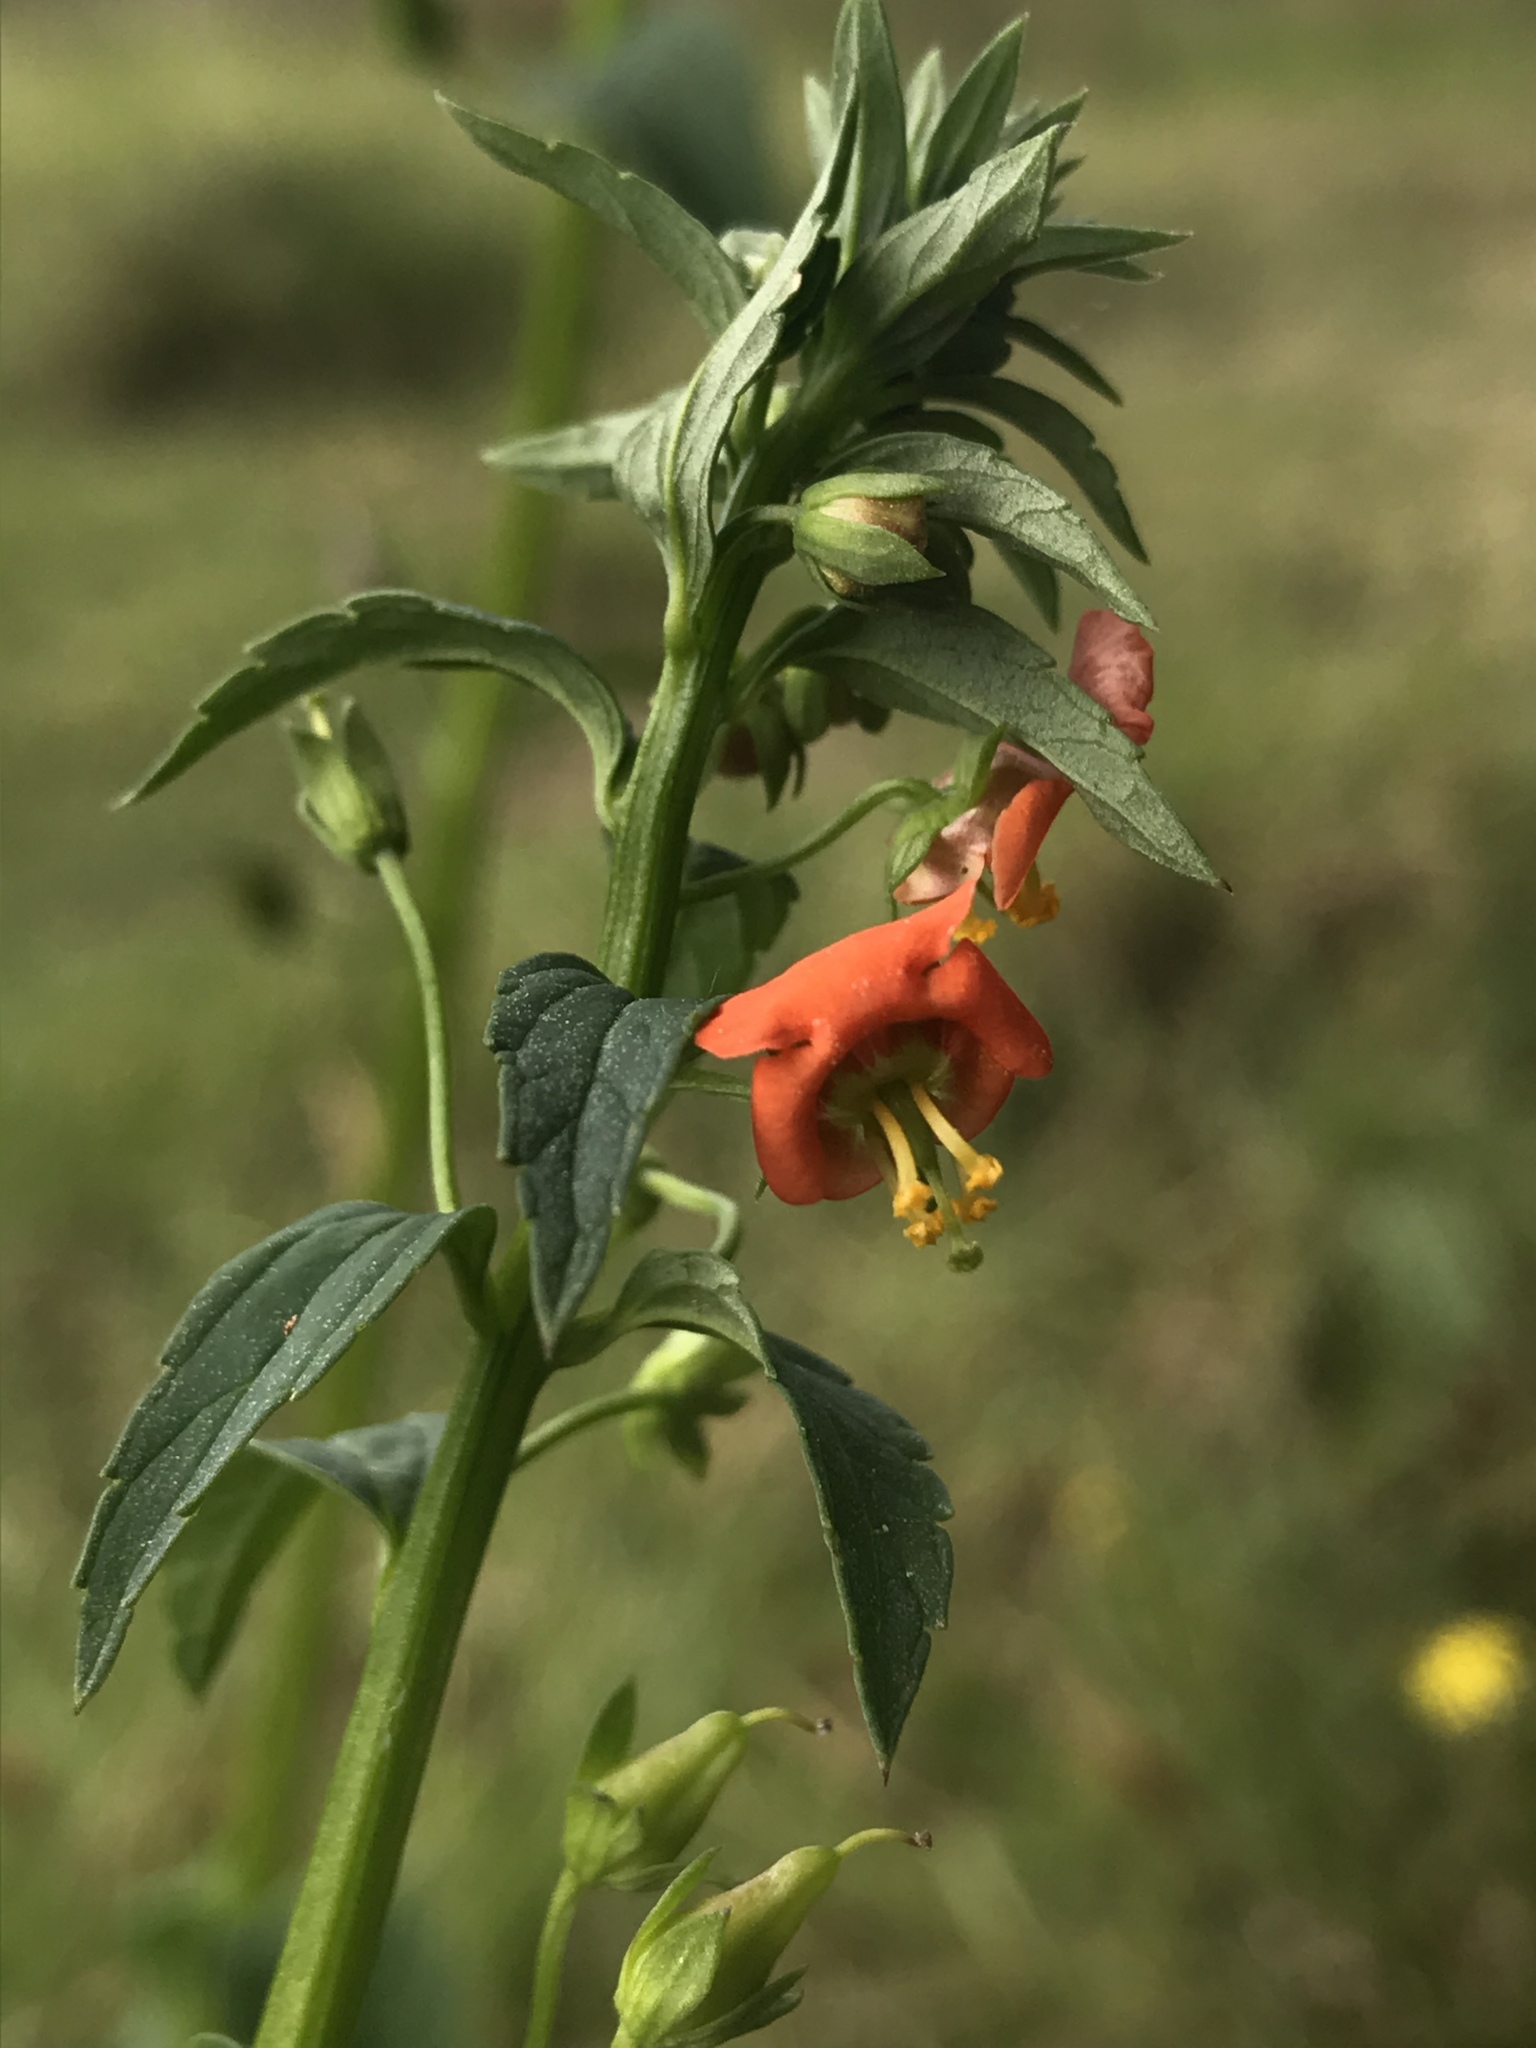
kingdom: Plantae
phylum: Tracheophyta
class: Magnoliopsida
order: Lamiales
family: Scrophulariaceae
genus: Alonsoa
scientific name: Alonsoa meridionalis
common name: Maskflower
